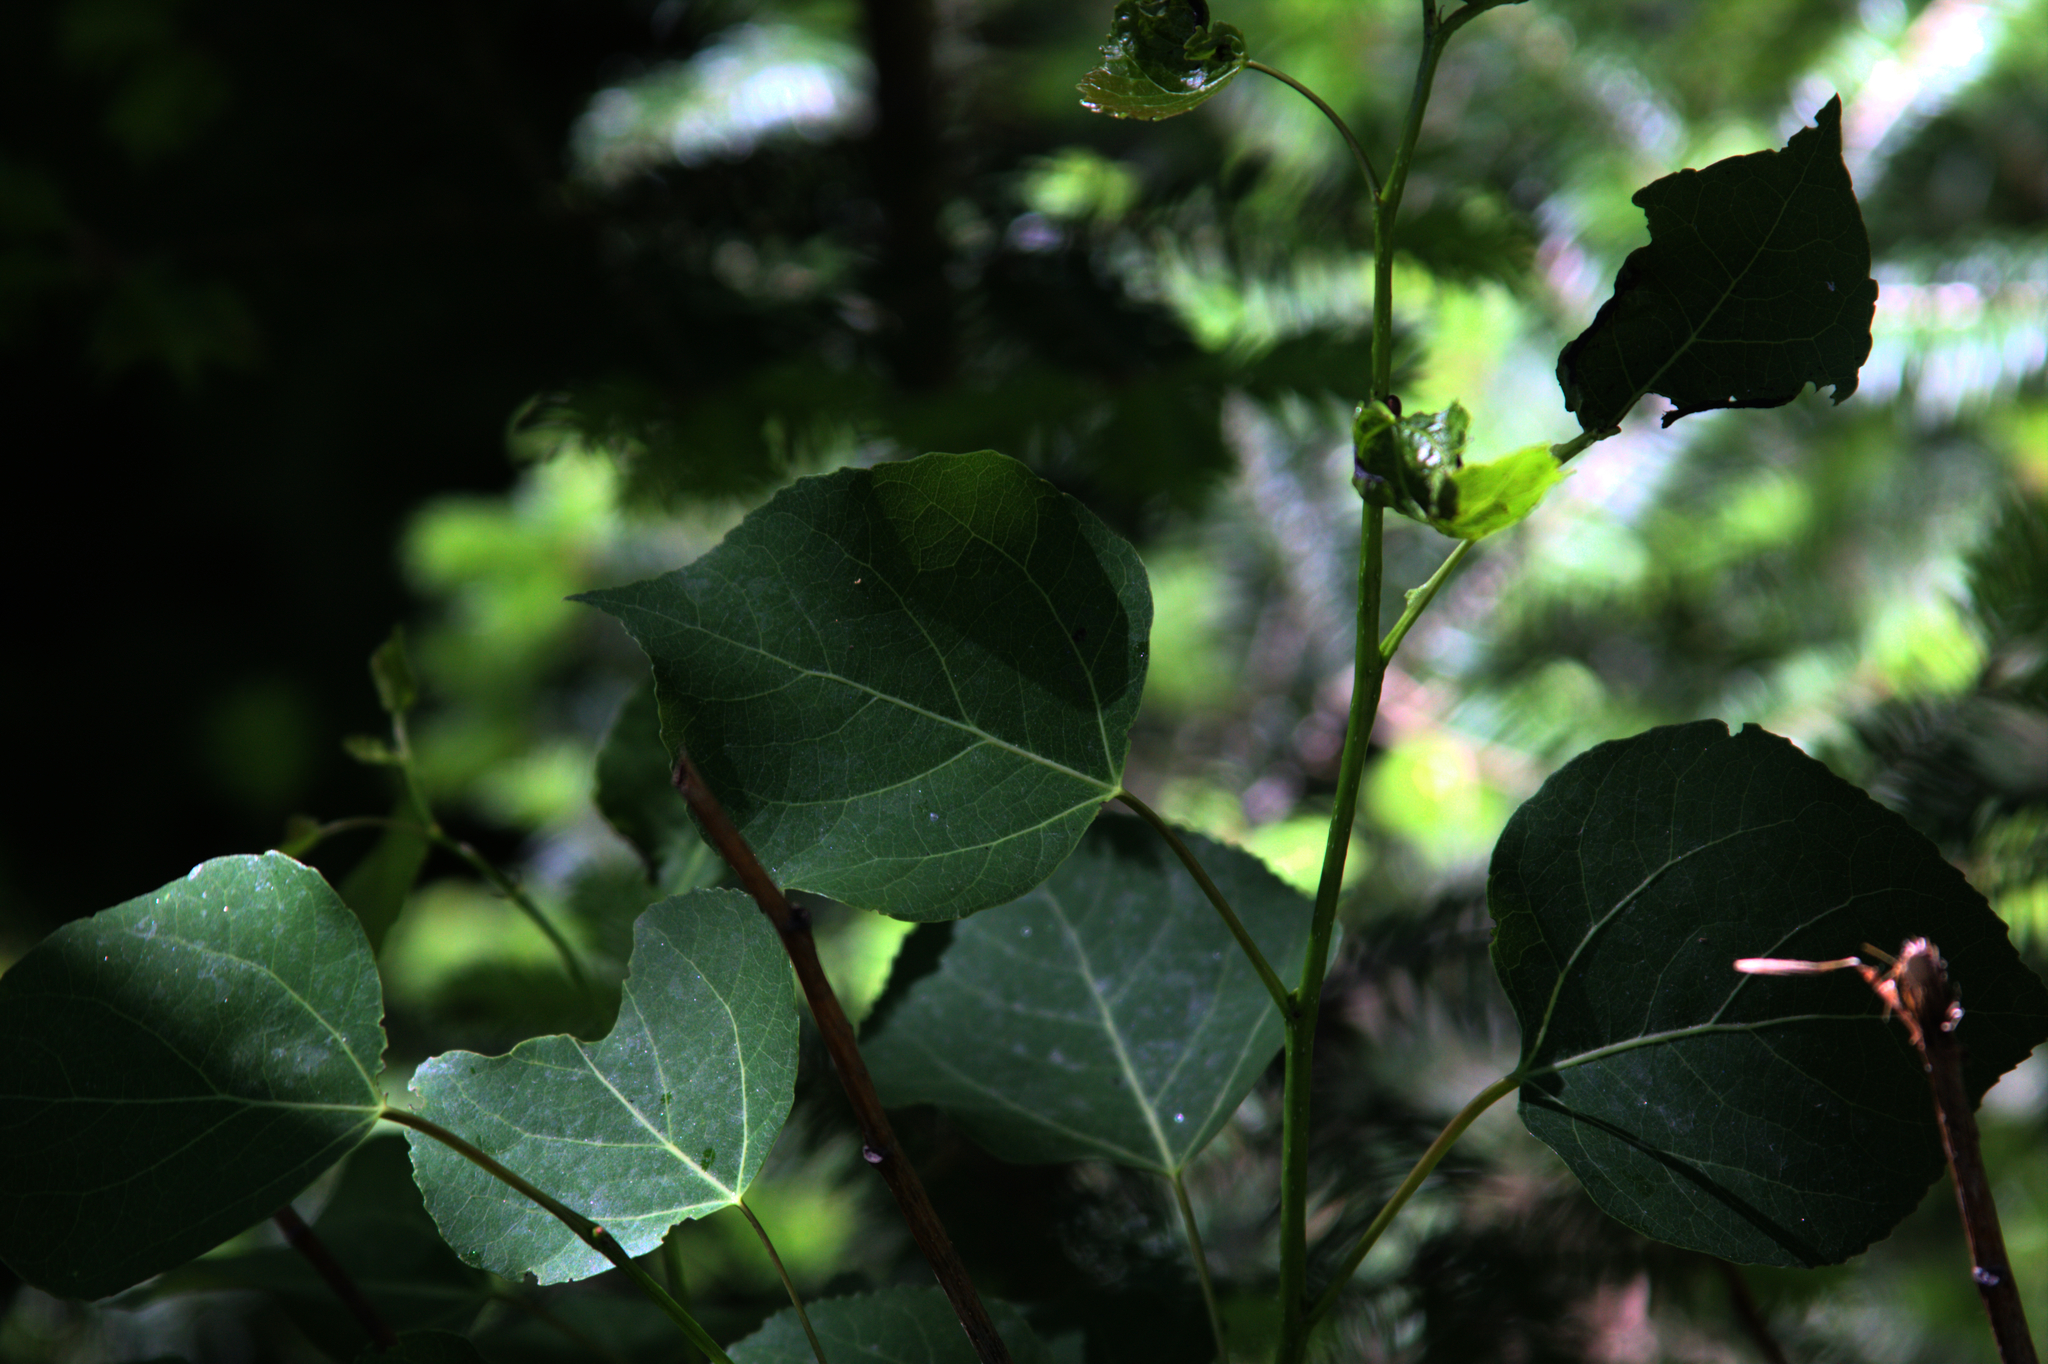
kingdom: Plantae
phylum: Tracheophyta
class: Magnoliopsida
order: Malpighiales
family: Salicaceae
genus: Populus
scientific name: Populus tremuloides
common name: Quaking aspen
